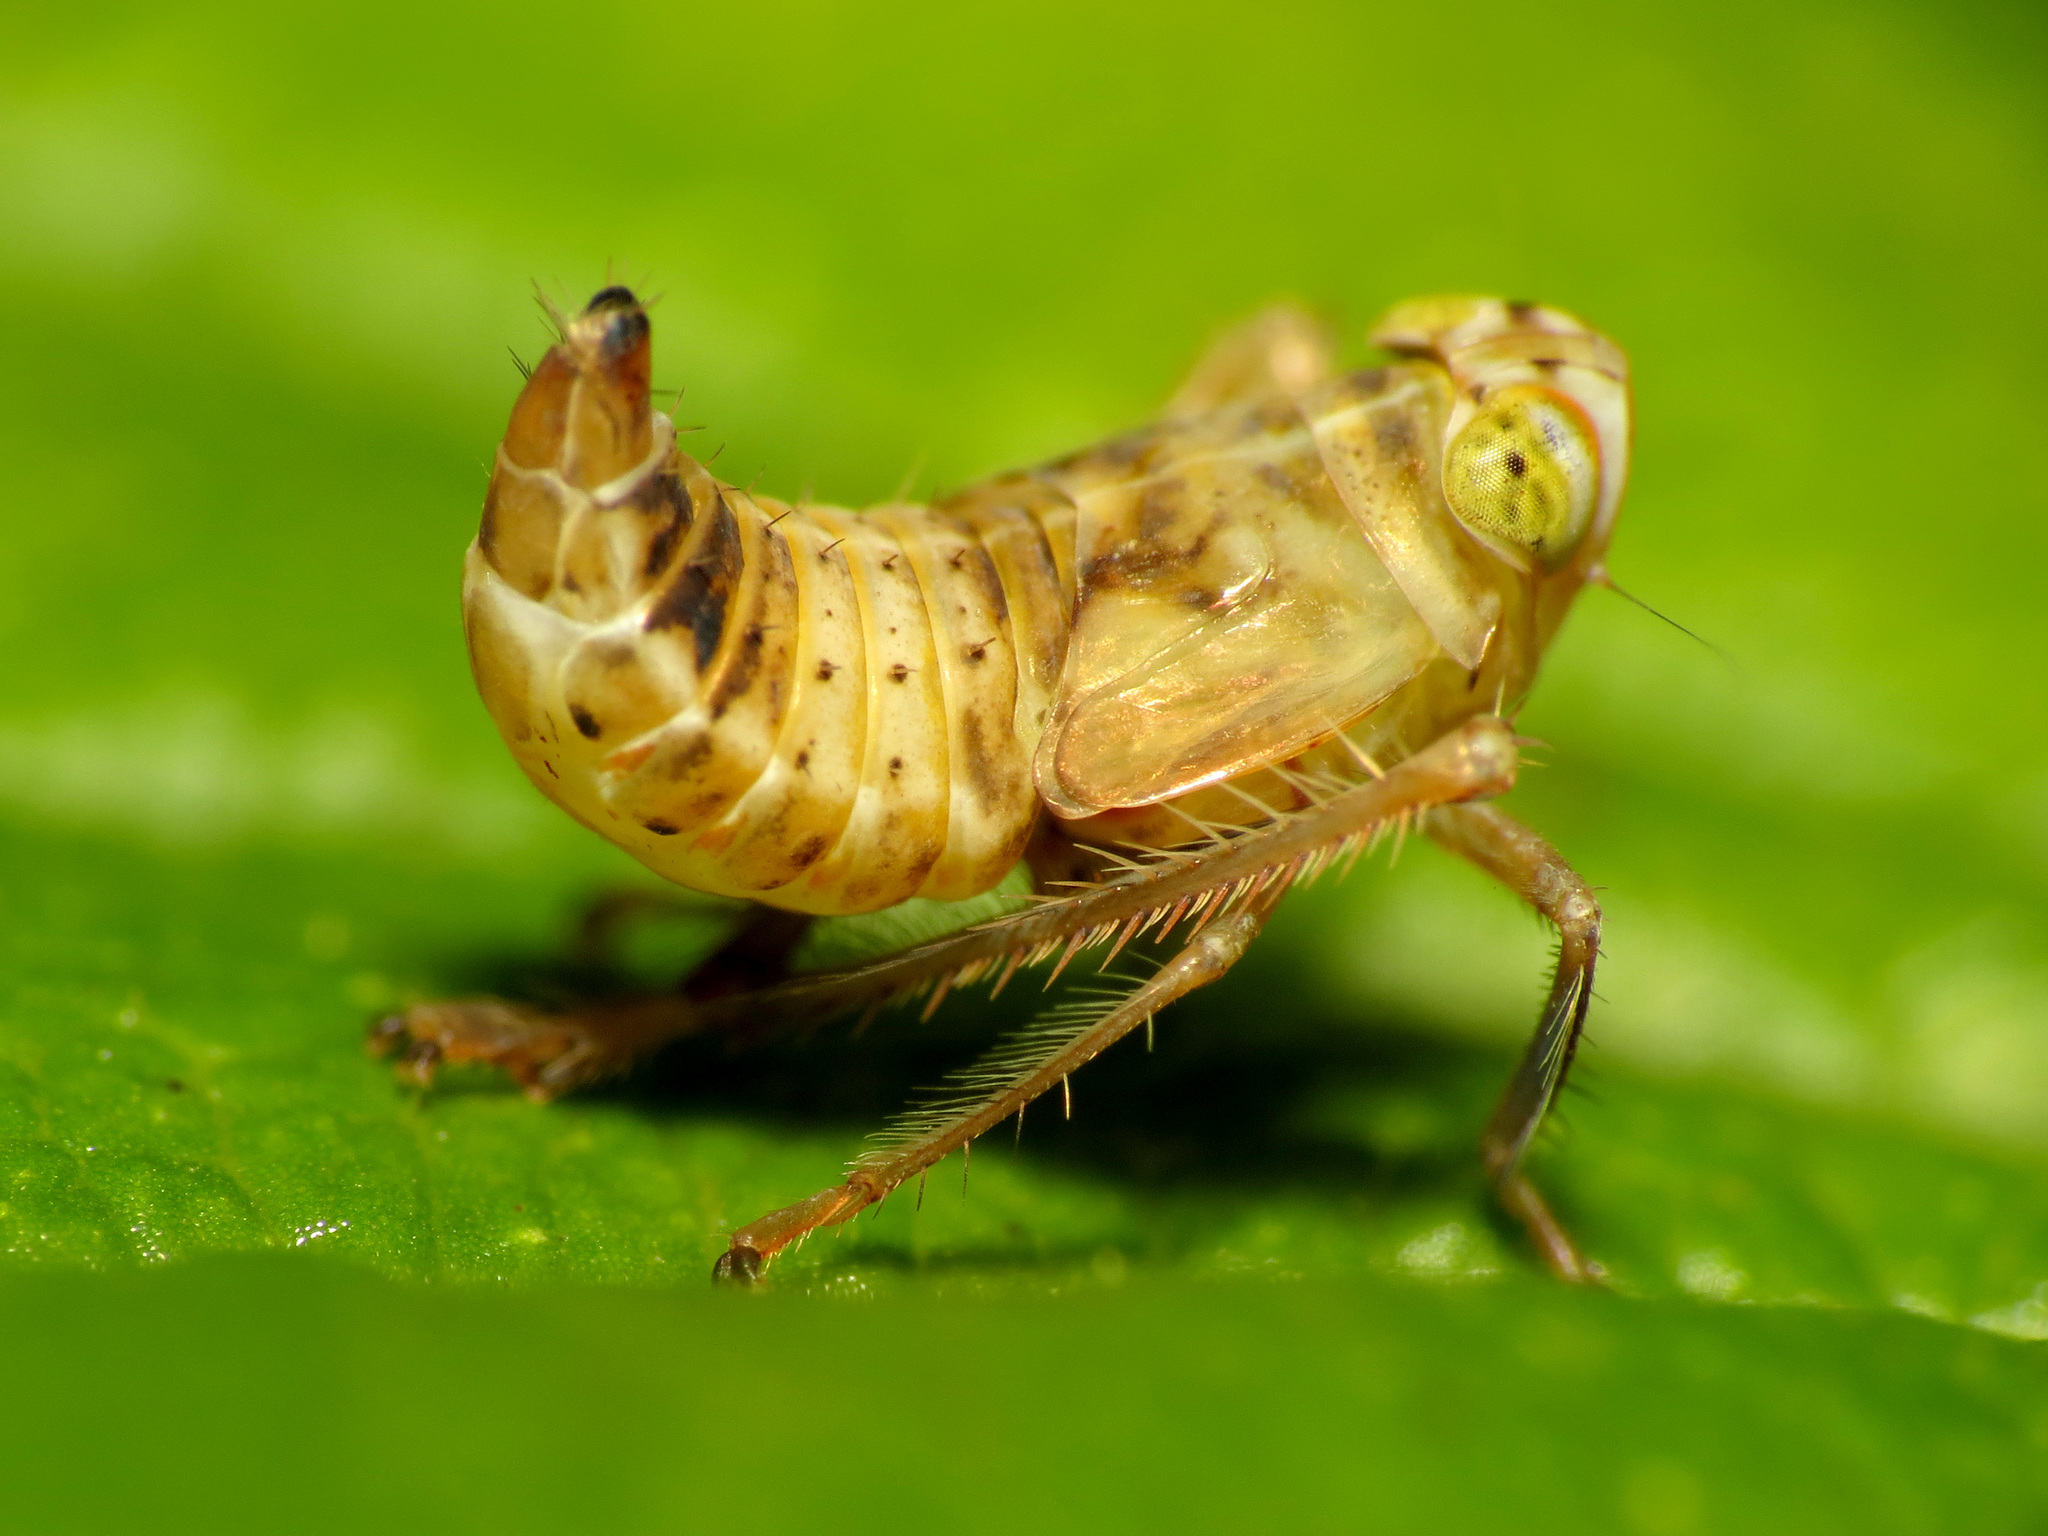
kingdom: Animalia
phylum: Arthropoda
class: Insecta
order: Hemiptera
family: Cicadellidae
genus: Jikradia
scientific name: Jikradia olitoria
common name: Coppery leafhopper
